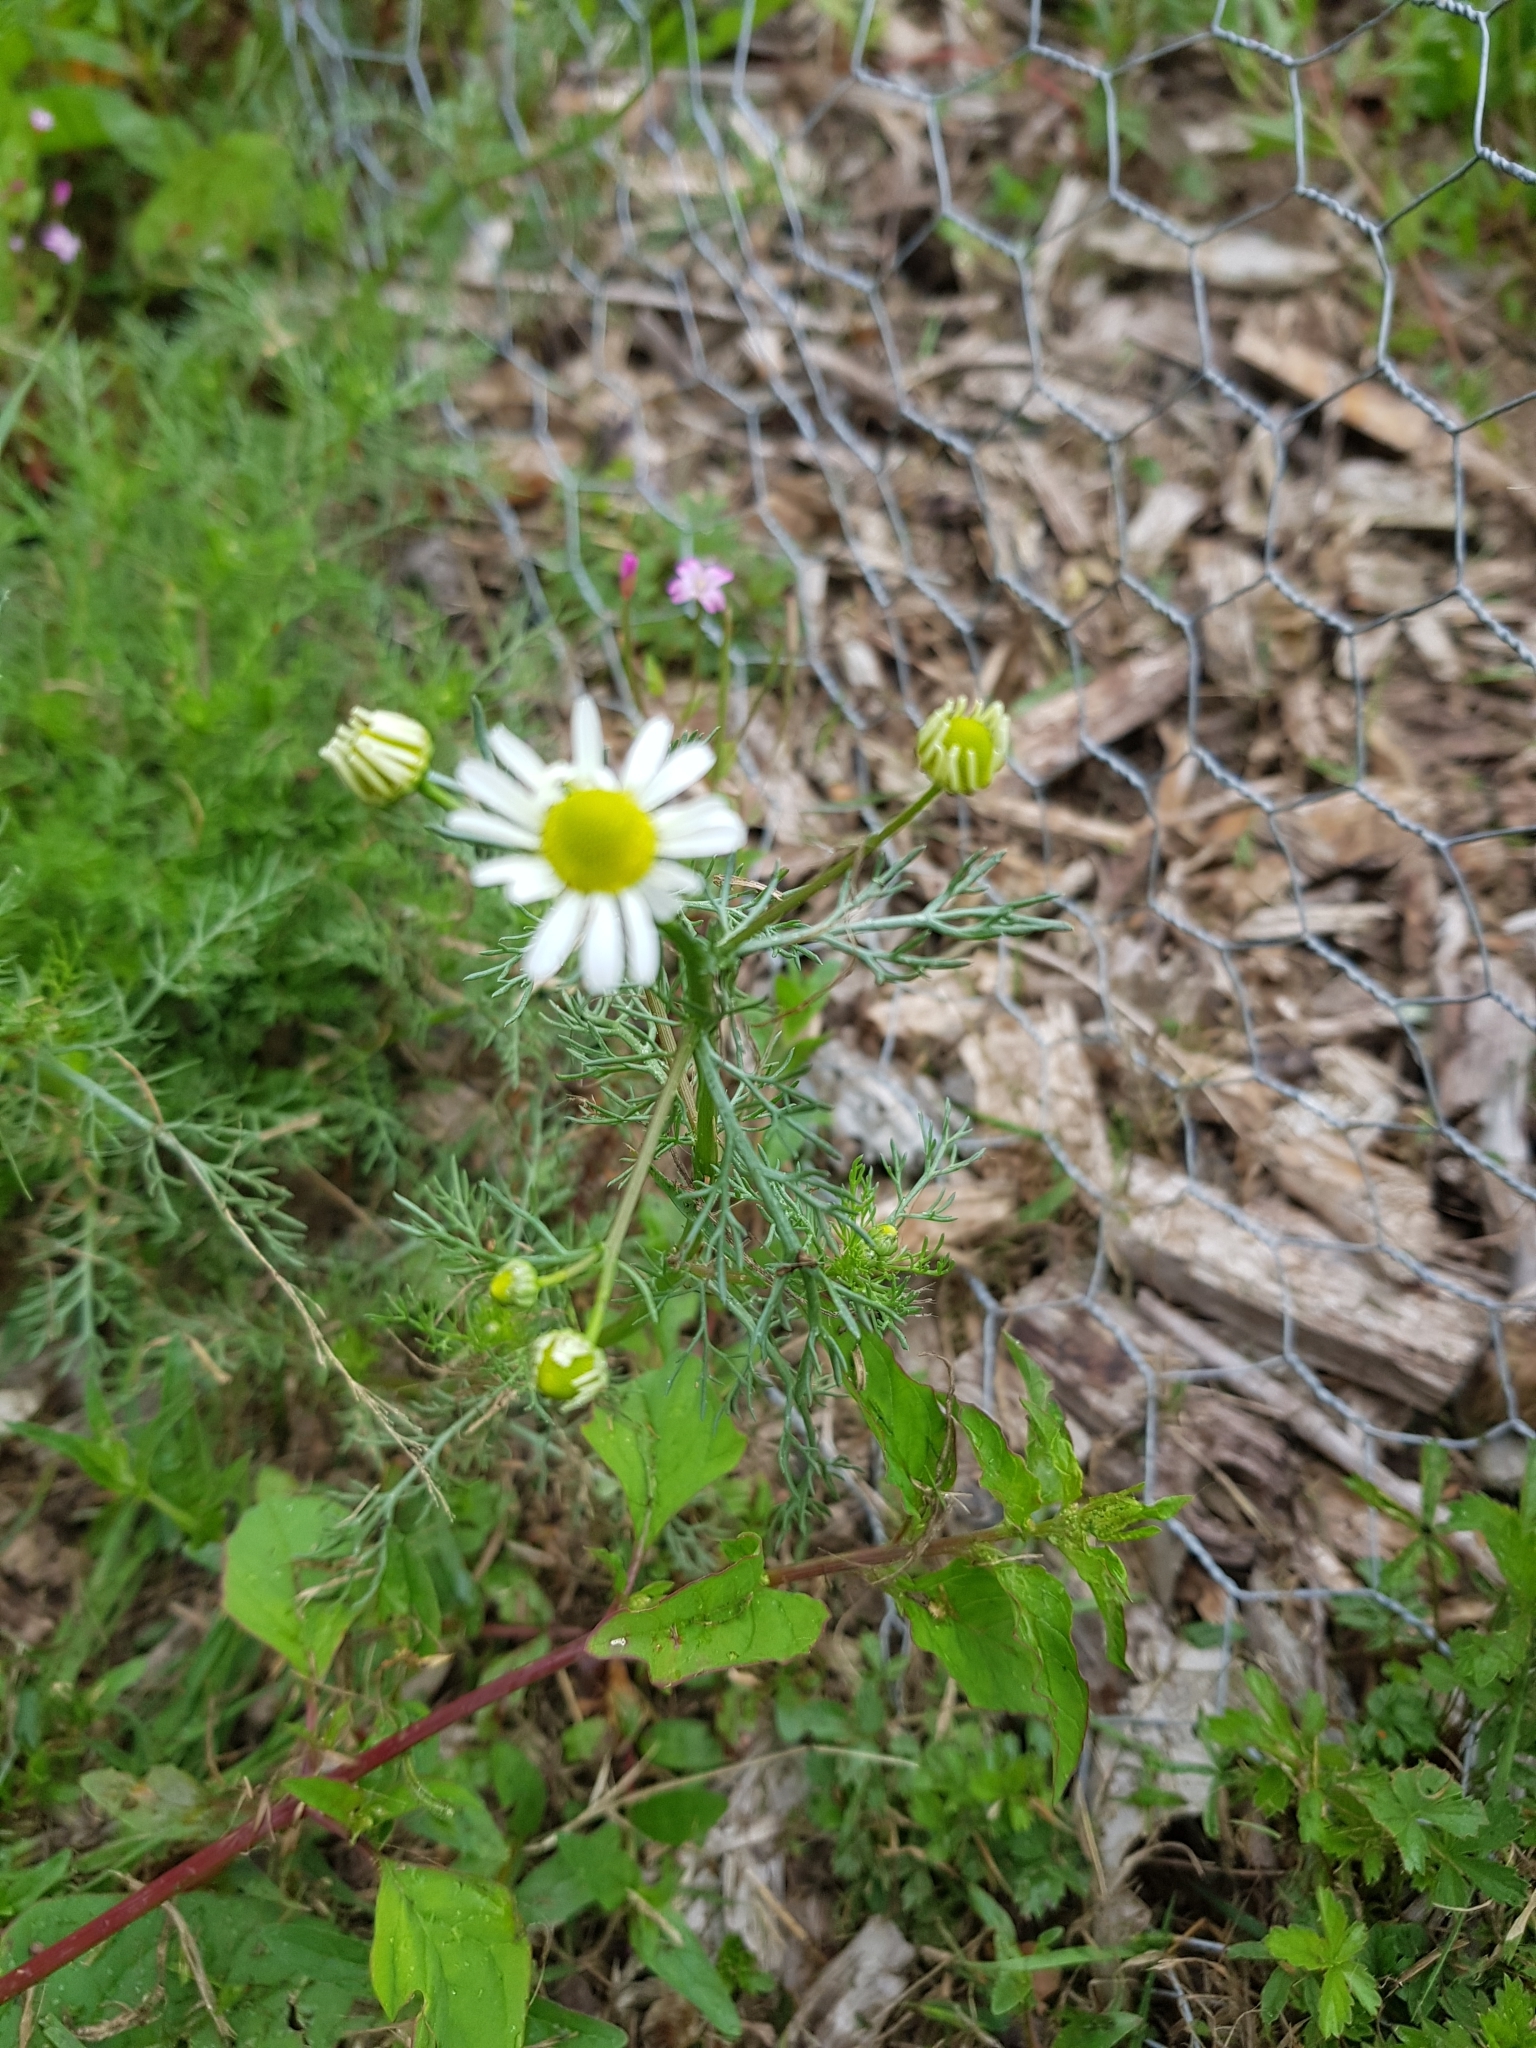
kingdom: Plantae
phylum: Tracheophyta
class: Magnoliopsida
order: Asterales
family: Asteraceae
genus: Tripleurospermum
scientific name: Tripleurospermum inodorum
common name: Scentless mayweed
